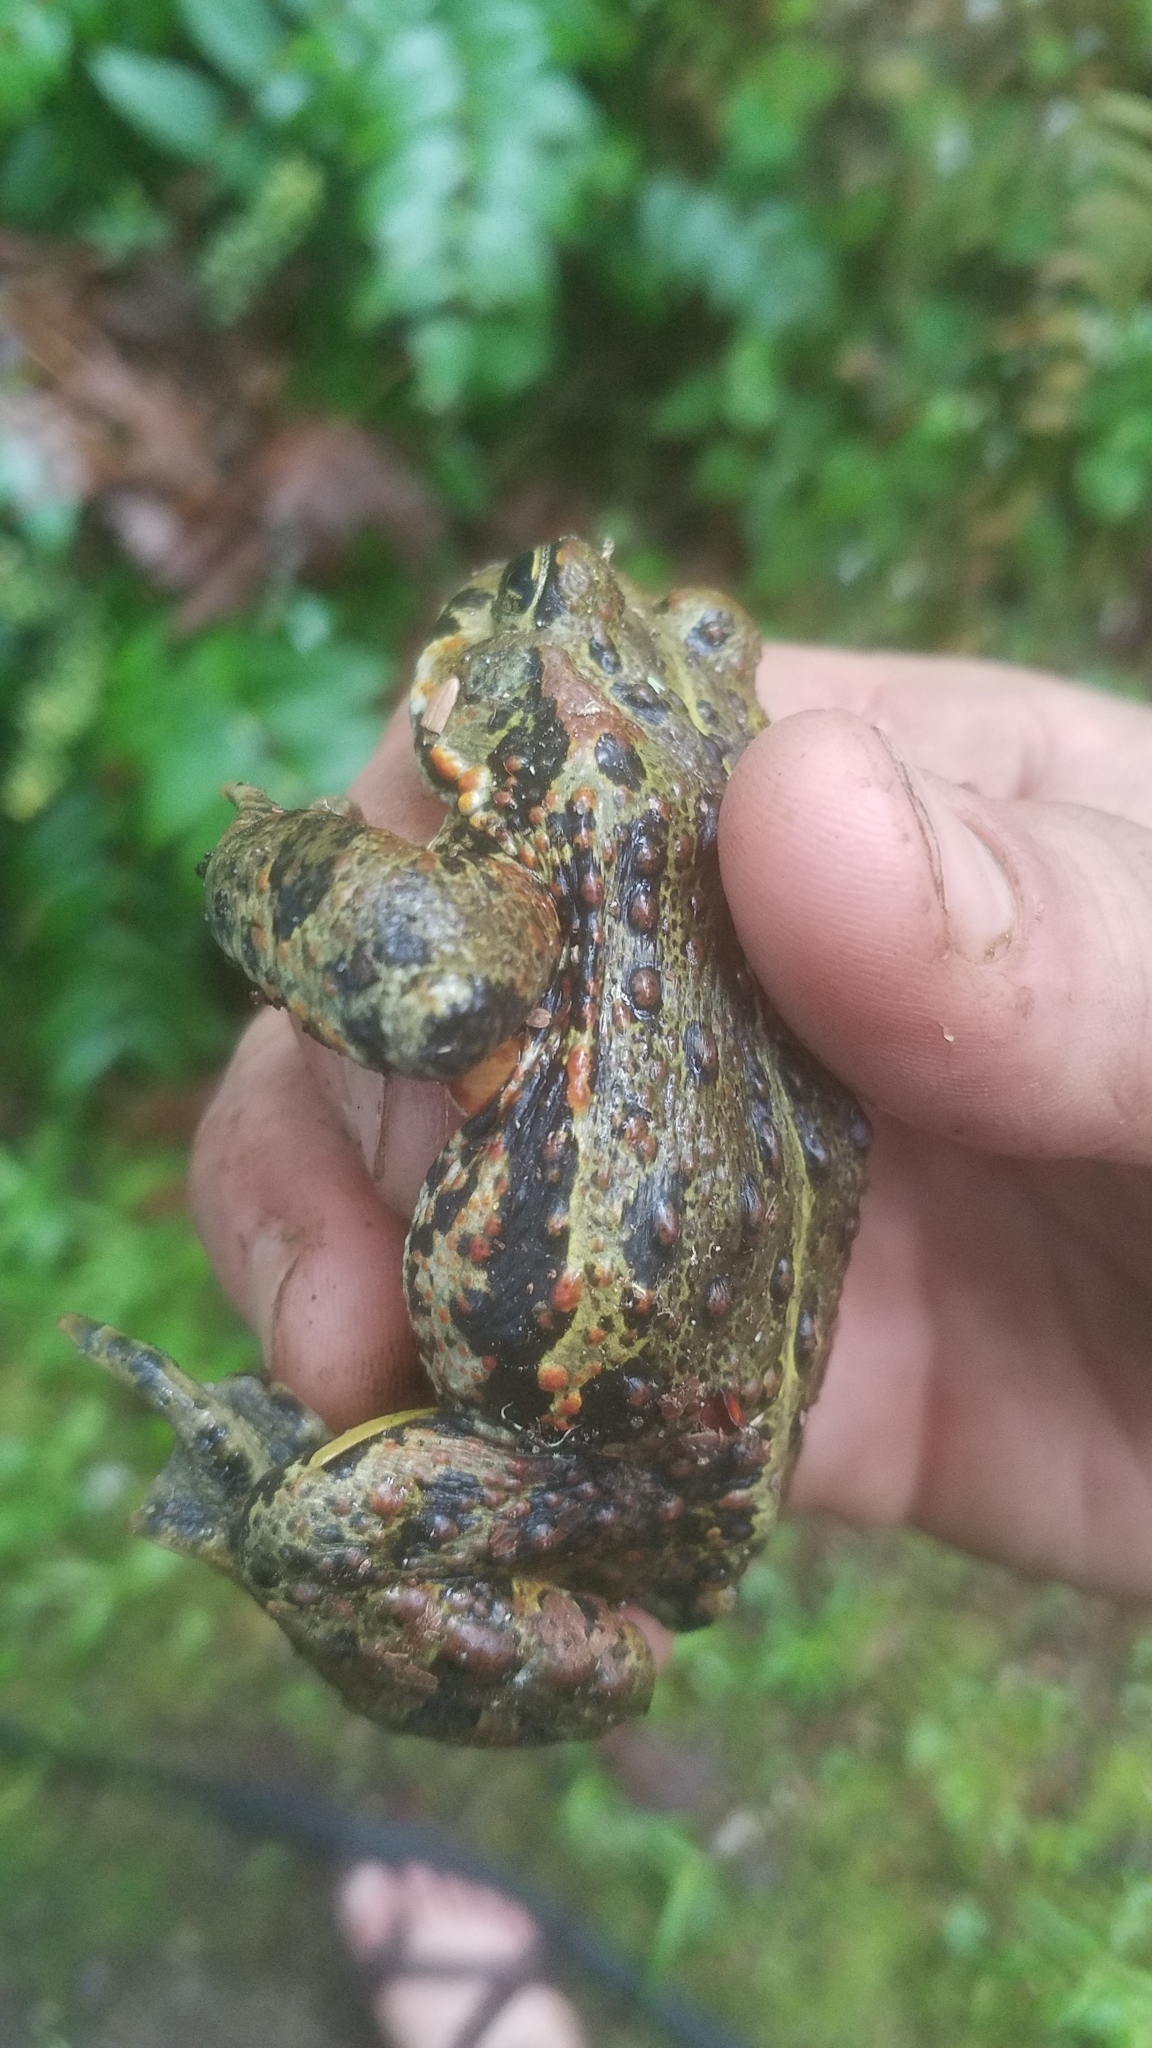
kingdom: Animalia
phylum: Chordata
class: Amphibia
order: Anura
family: Bufonidae
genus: Anaxyrus
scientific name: Anaxyrus boreas
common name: Western toad
